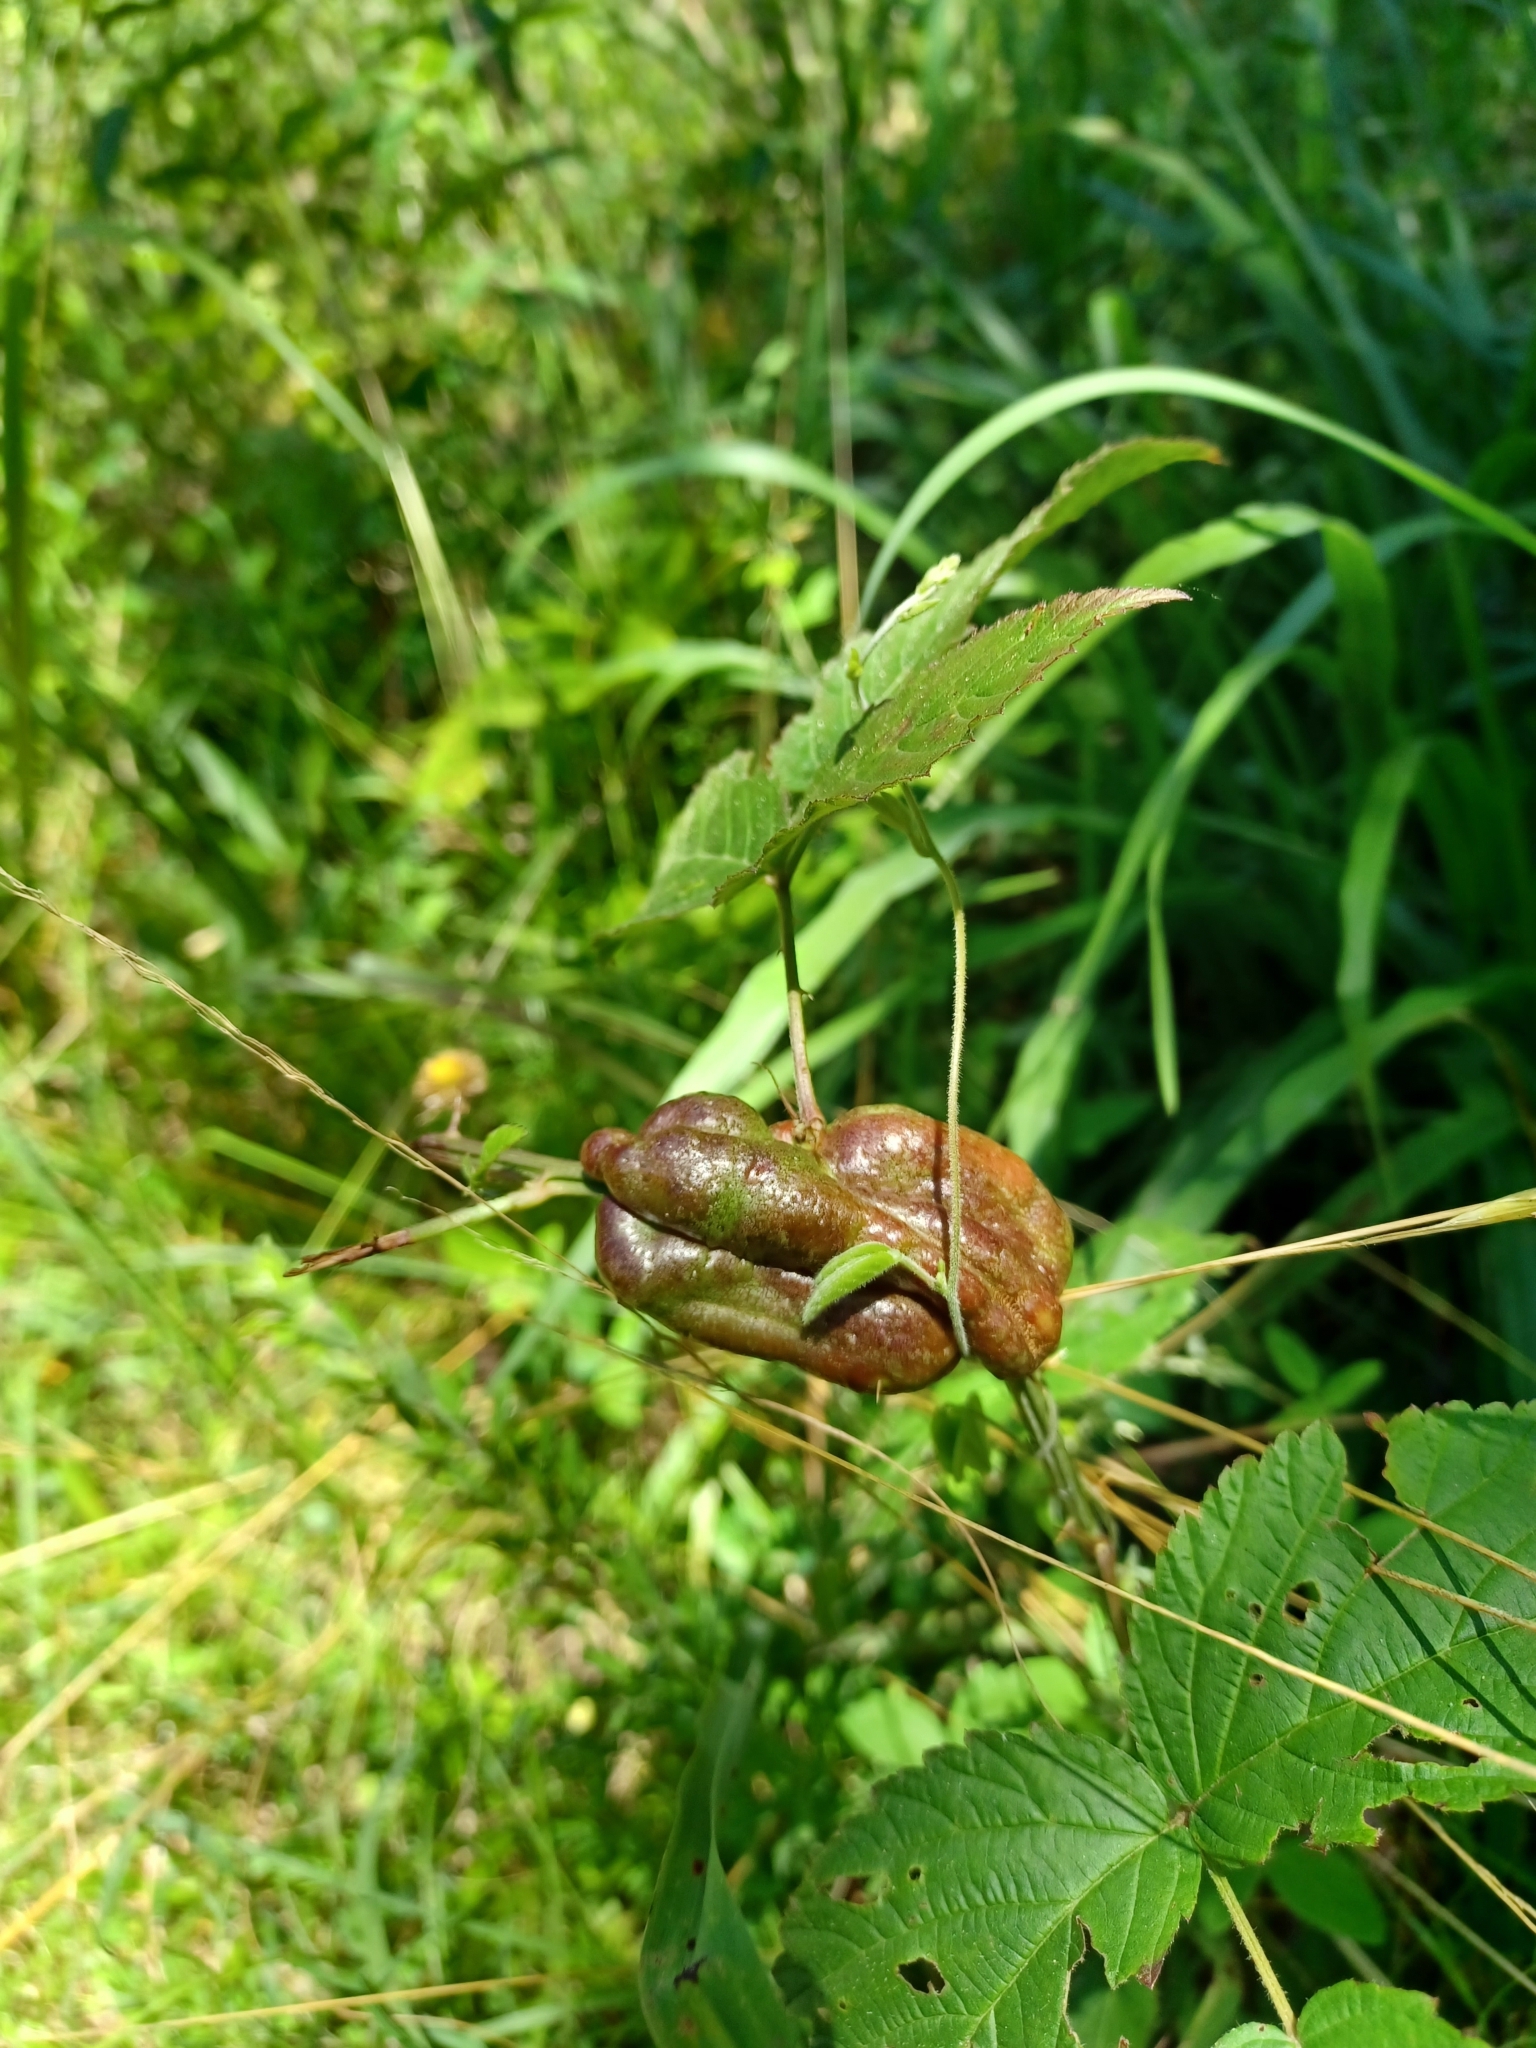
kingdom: Animalia
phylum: Arthropoda
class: Insecta
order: Hymenoptera
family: Cynipidae
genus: Diastrophus
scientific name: Diastrophus
